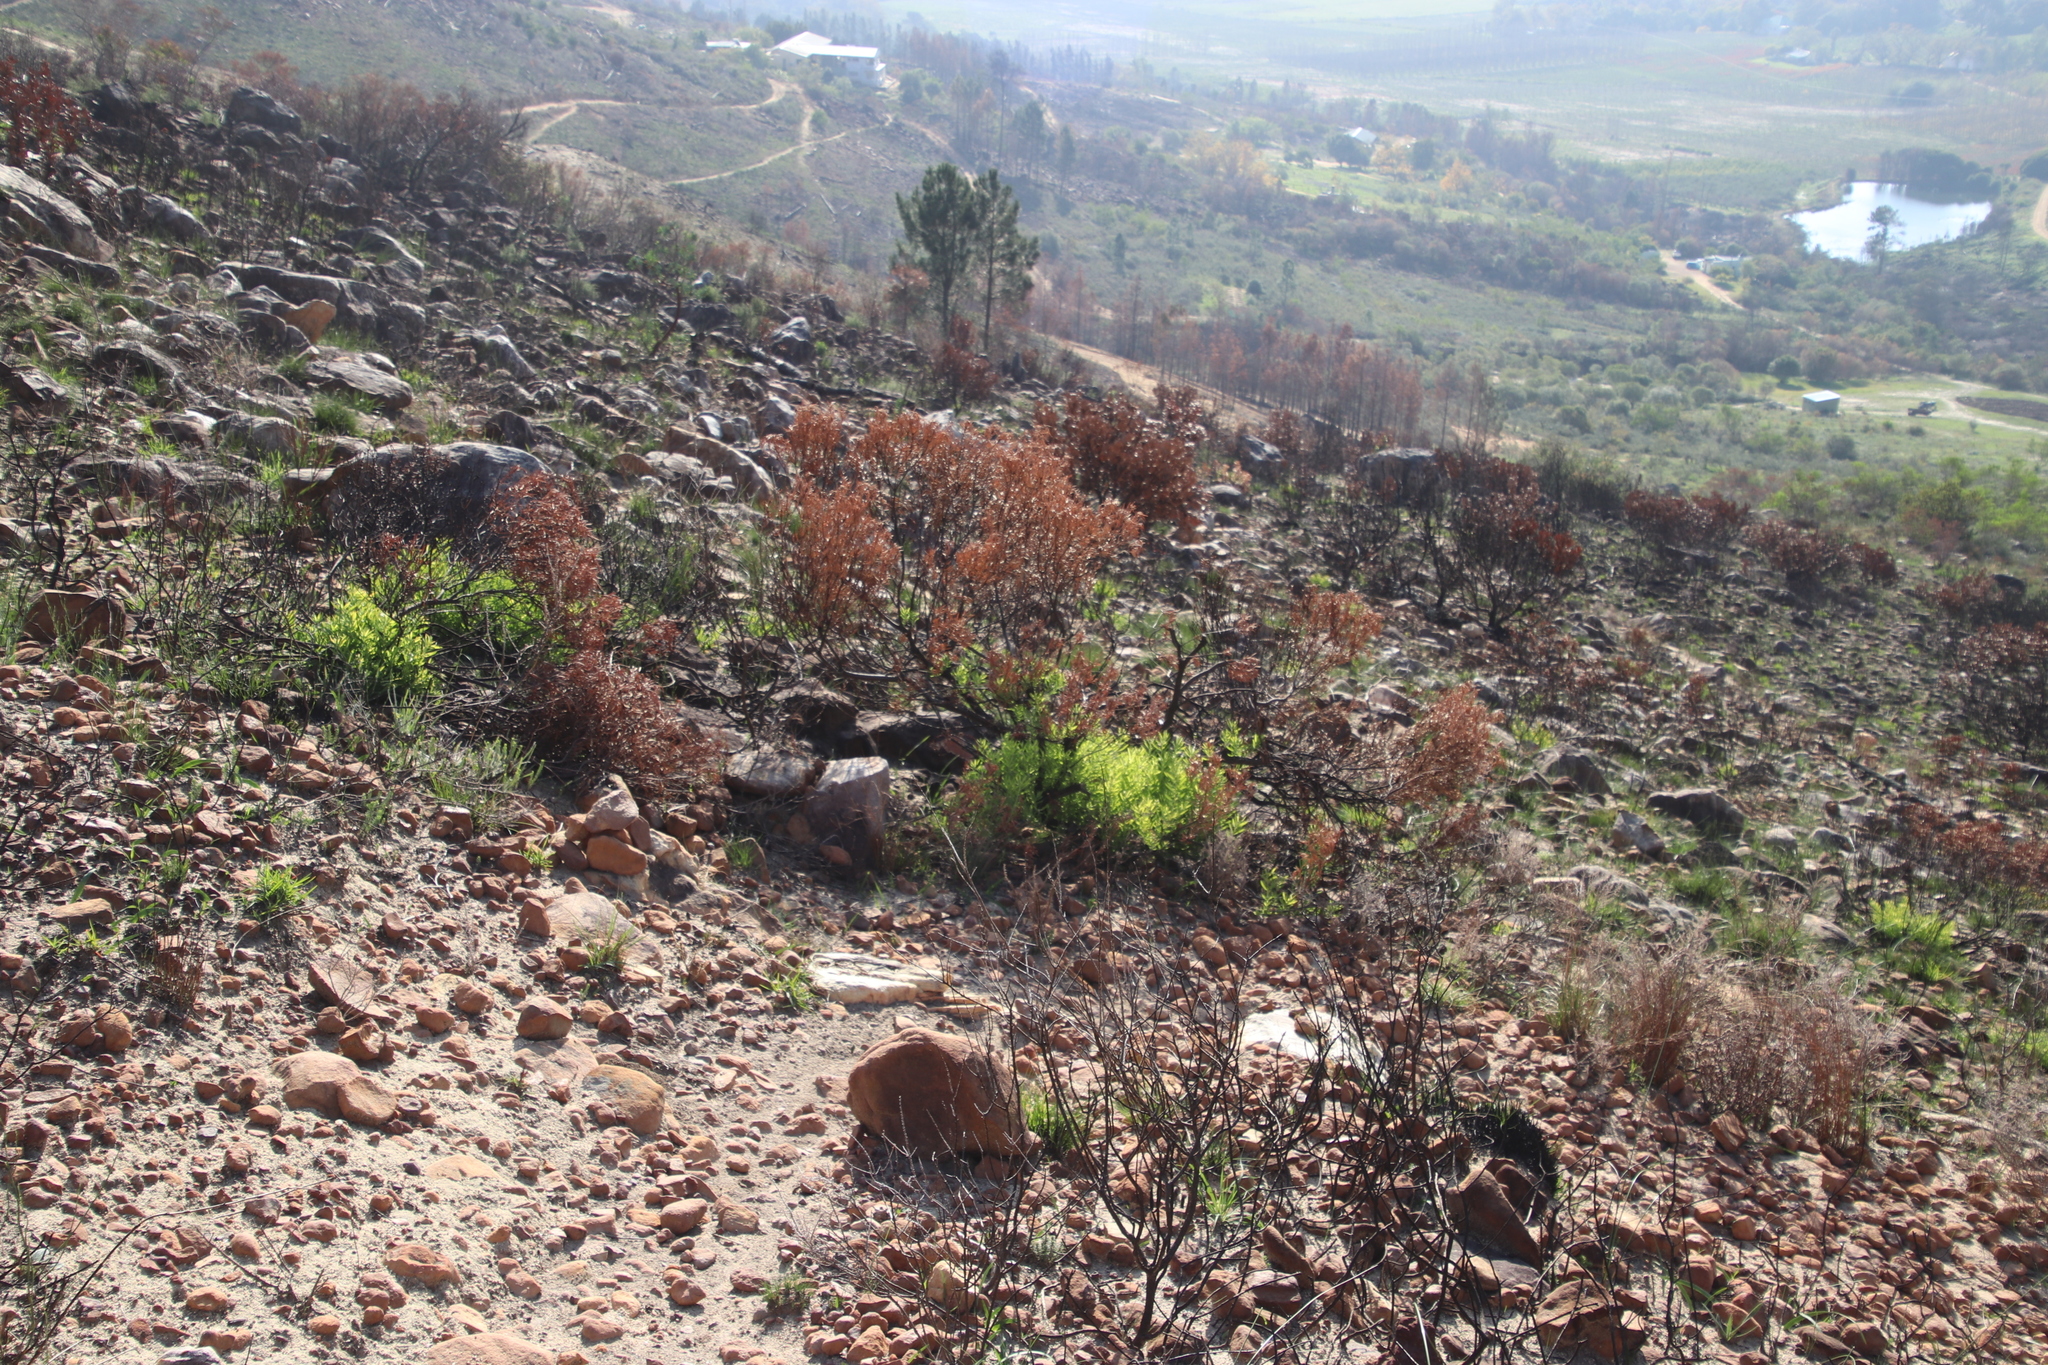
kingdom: Plantae
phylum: Tracheophyta
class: Magnoliopsida
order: Proteales
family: Proteaceae
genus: Leucadendron
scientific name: Leucadendron salignum
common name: Common sunshine conebush
